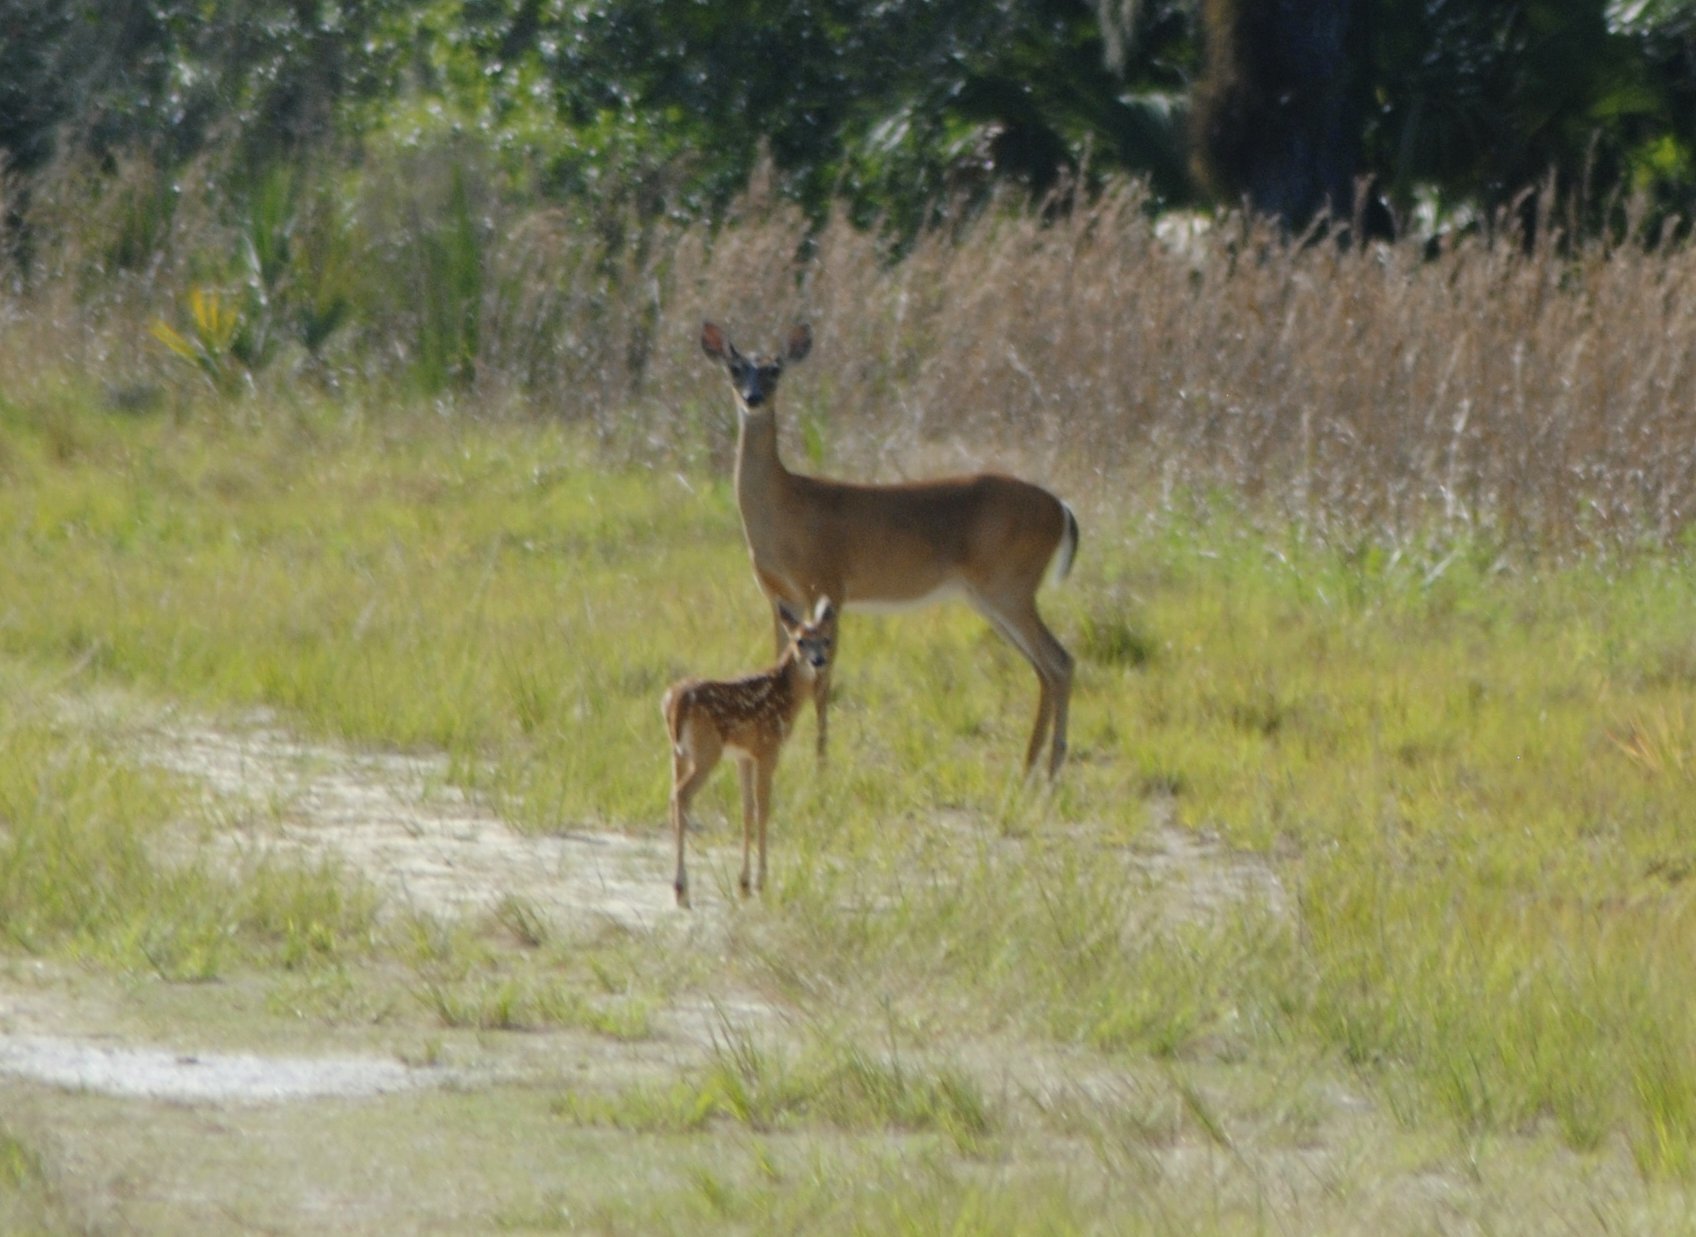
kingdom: Animalia
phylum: Chordata
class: Mammalia
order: Artiodactyla
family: Cervidae
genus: Odocoileus
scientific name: Odocoileus virginianus
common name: White-tailed deer
